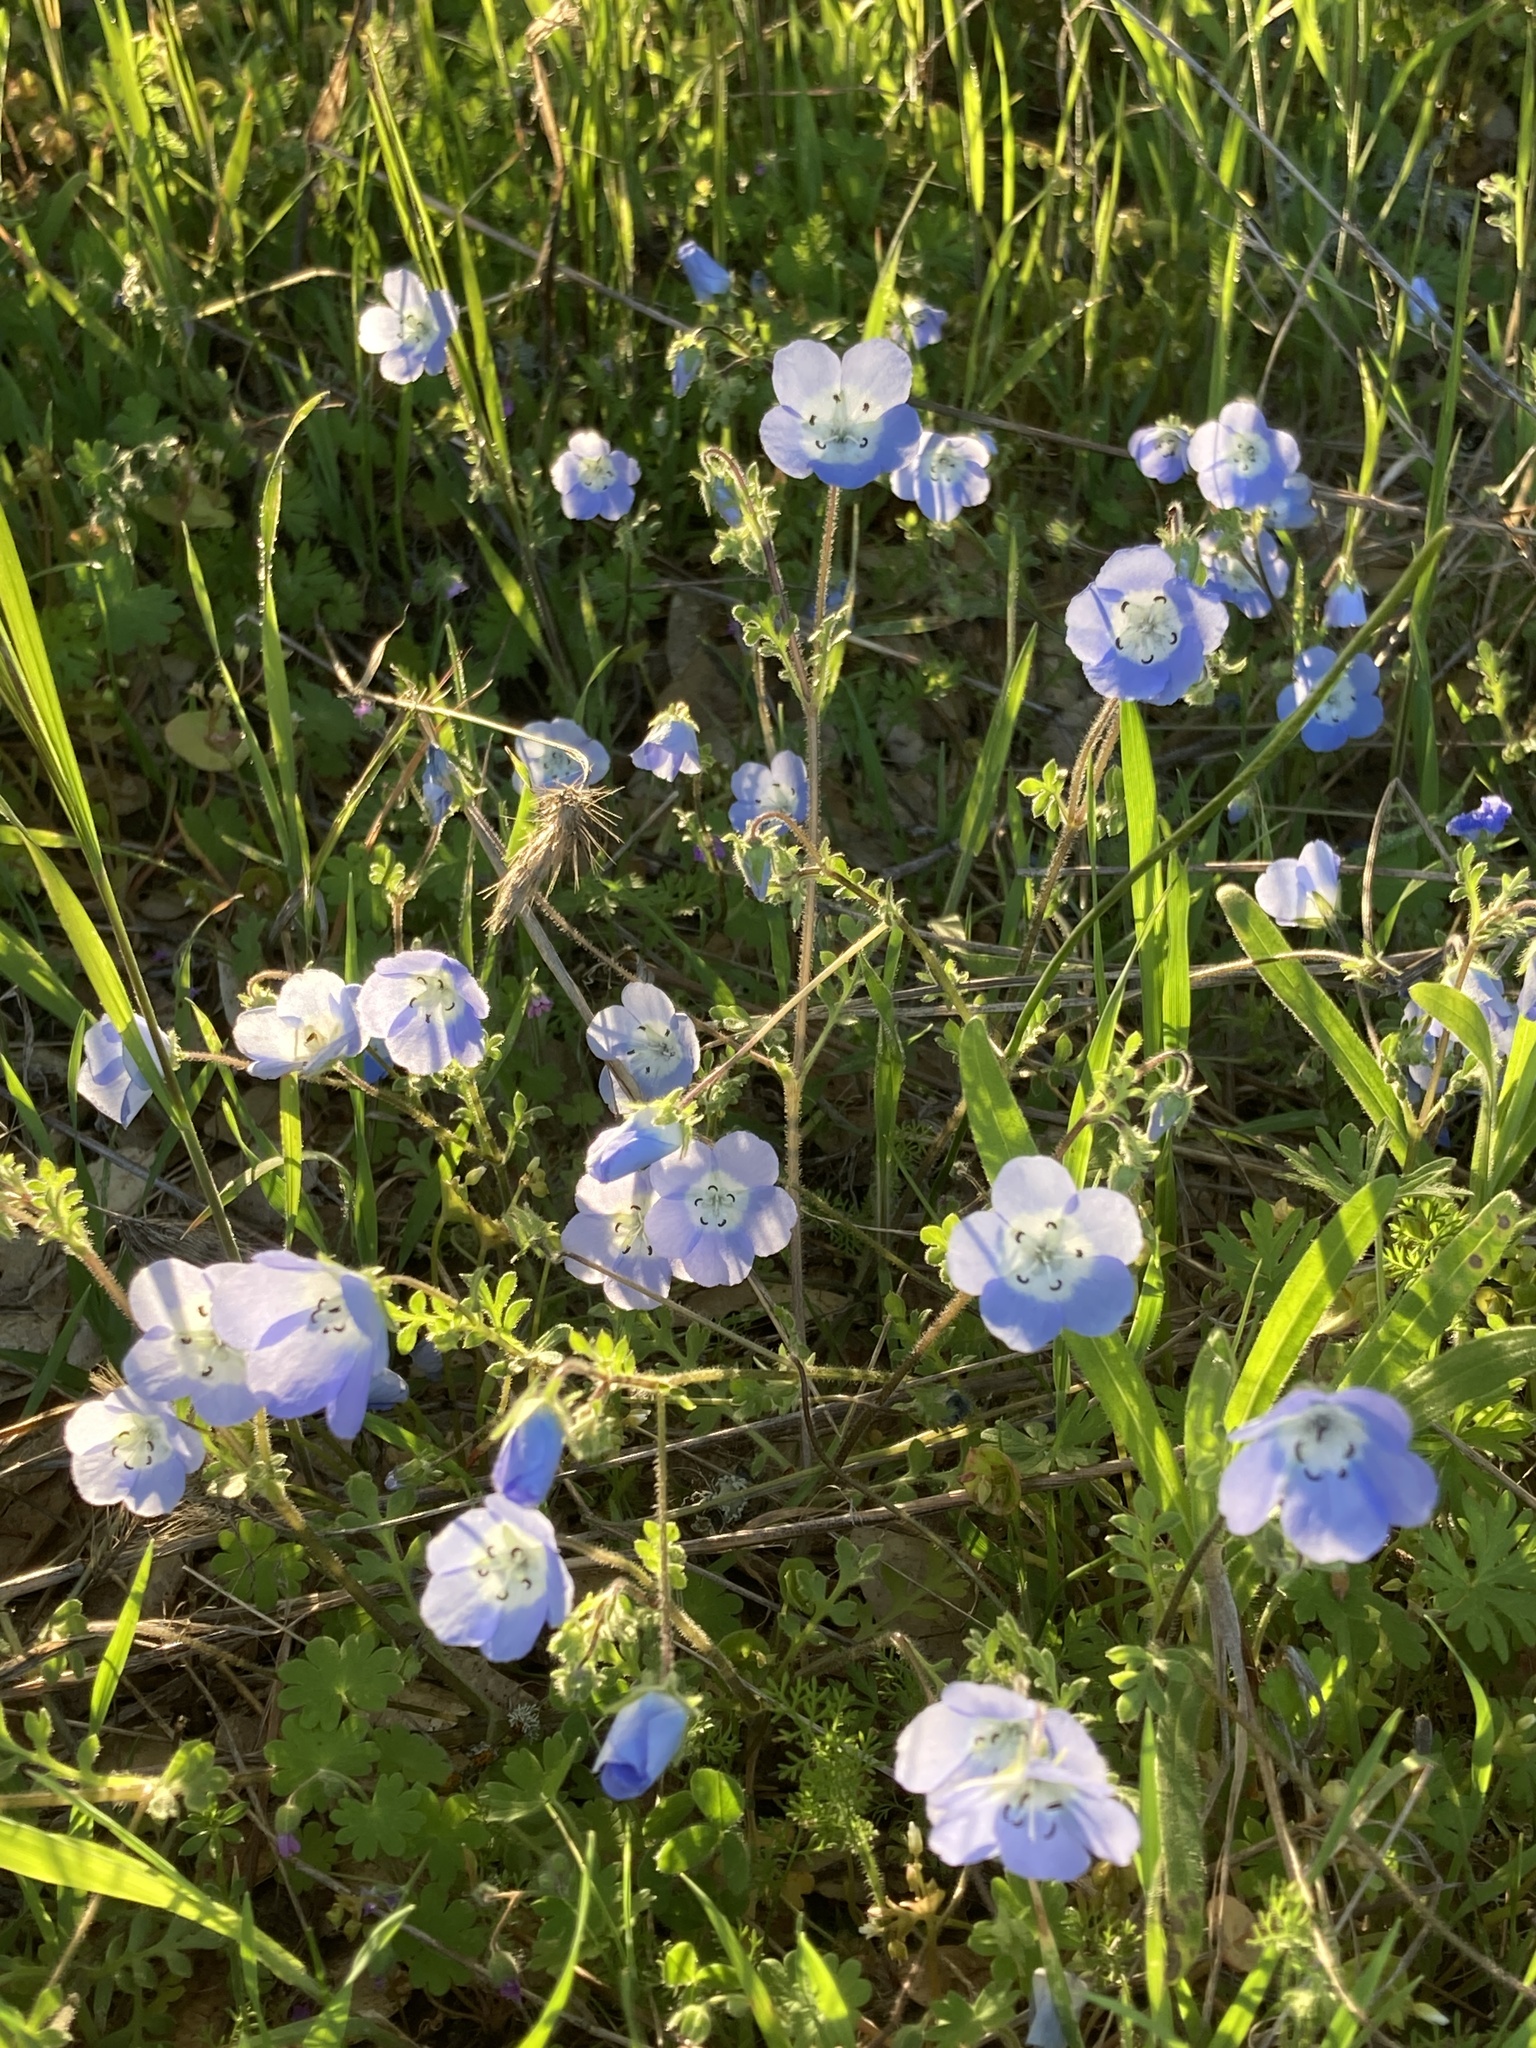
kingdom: Plantae
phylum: Tracheophyta
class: Magnoliopsida
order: Boraginales
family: Hydrophyllaceae
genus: Nemophila
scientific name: Nemophila menziesii
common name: Baby's-blue-eyes
